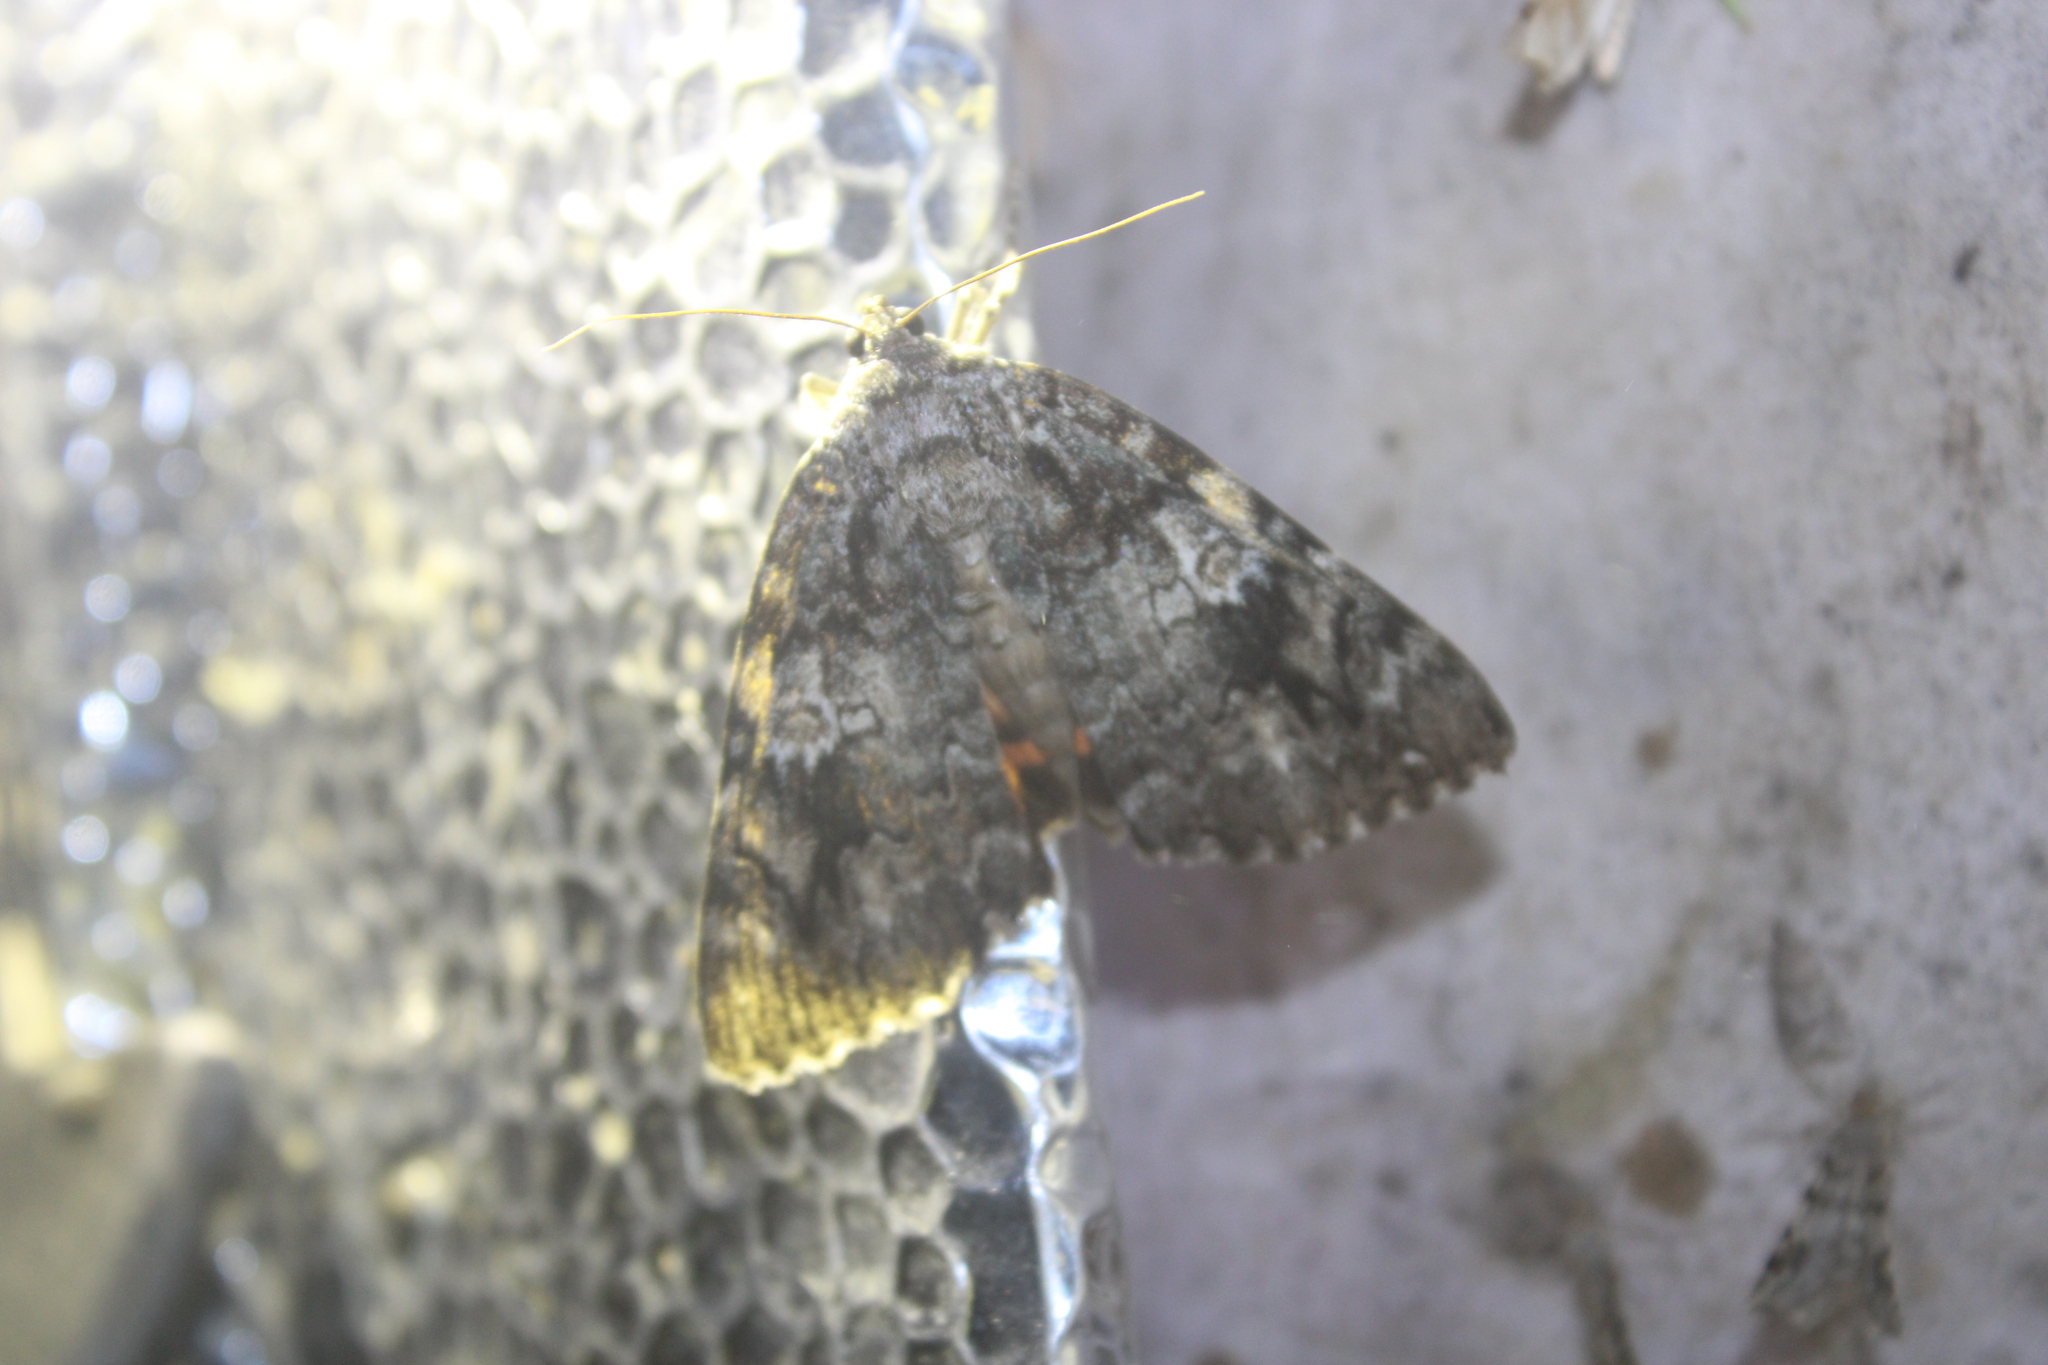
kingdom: Animalia
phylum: Arthropoda
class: Insecta
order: Lepidoptera
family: Erebidae
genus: Catocala
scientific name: Catocala ilia
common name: Ilia underwing
